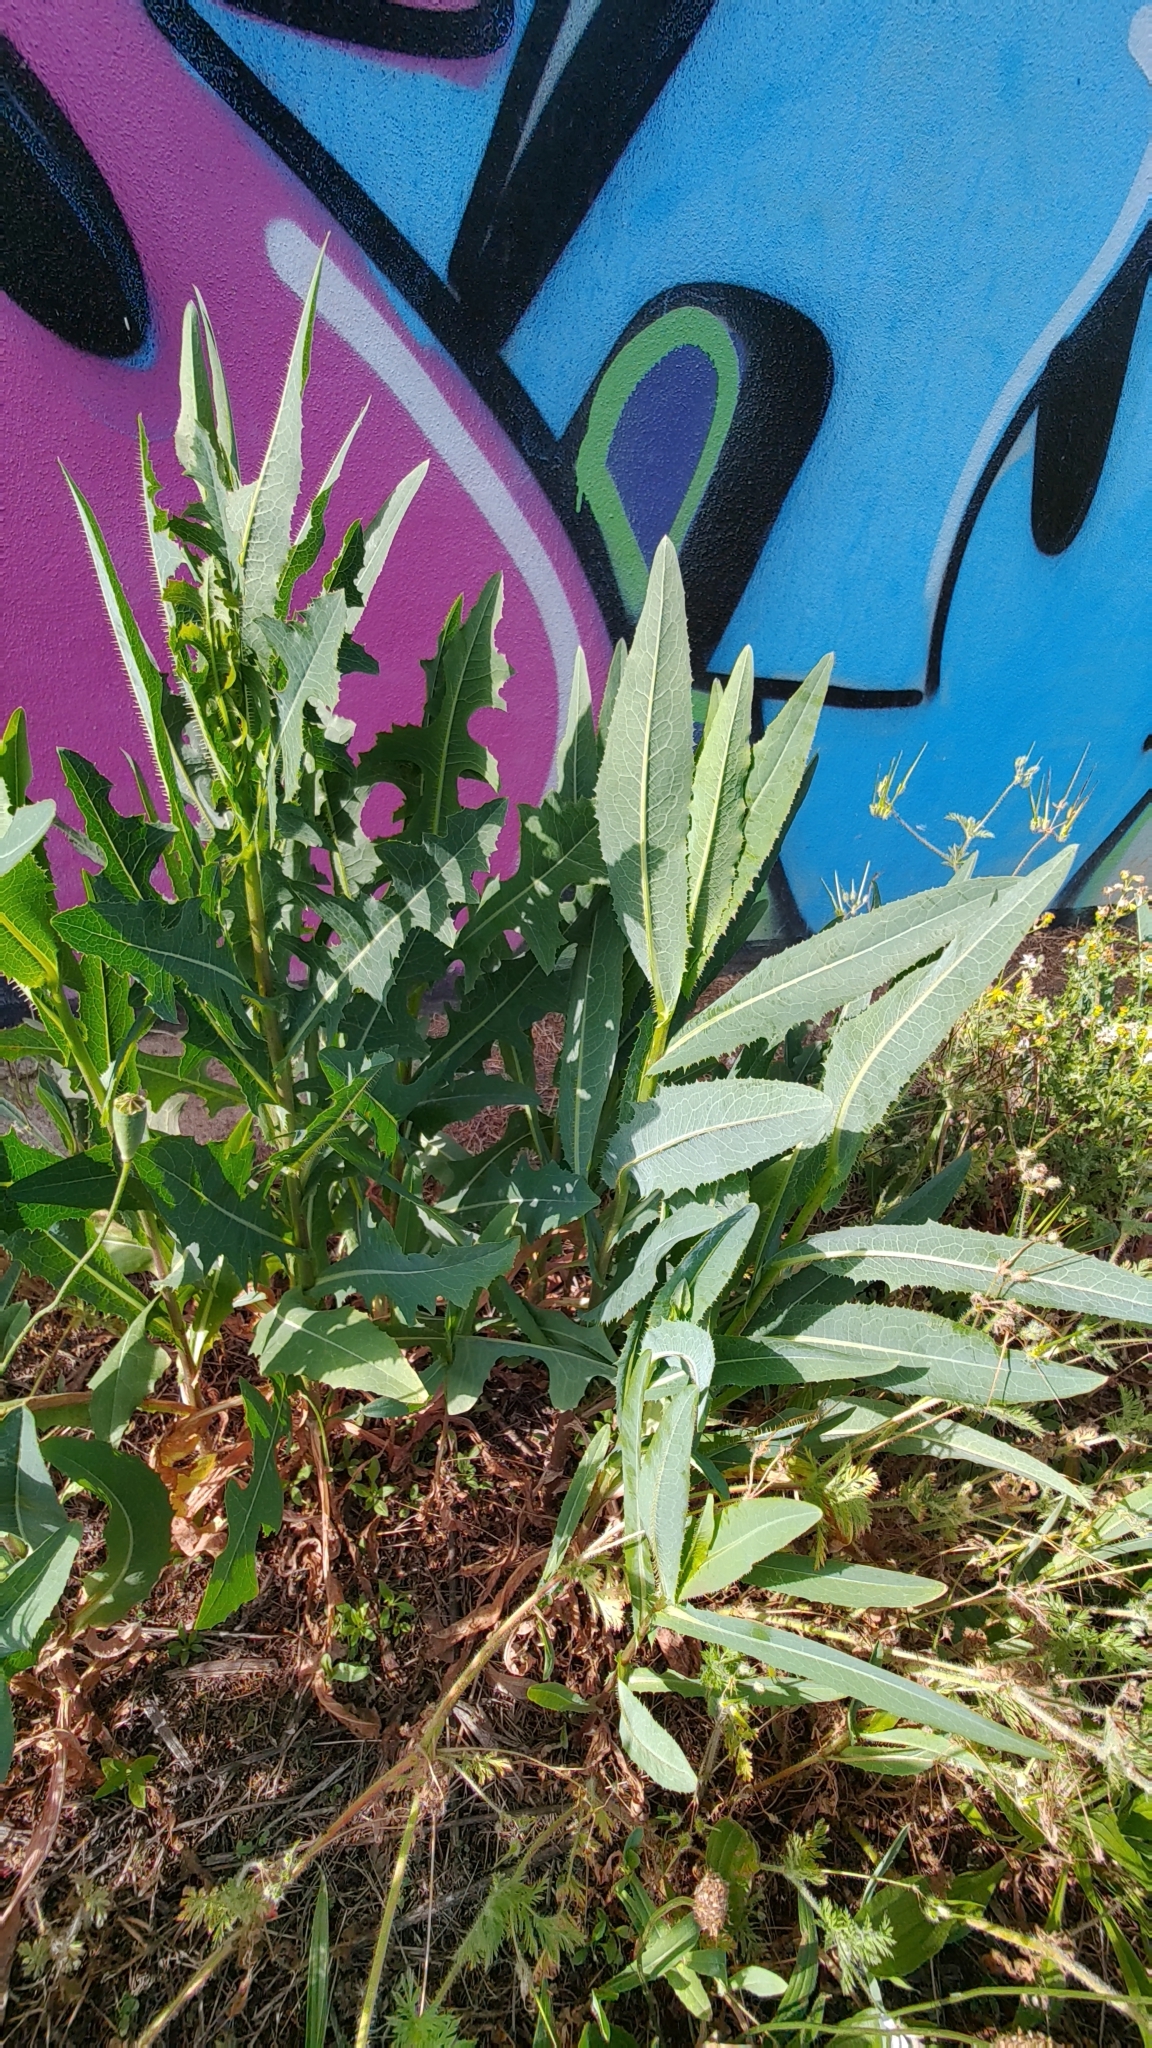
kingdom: Plantae
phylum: Tracheophyta
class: Magnoliopsida
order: Asterales
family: Asteraceae
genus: Lactuca
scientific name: Lactuca serriola
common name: Prickly lettuce
